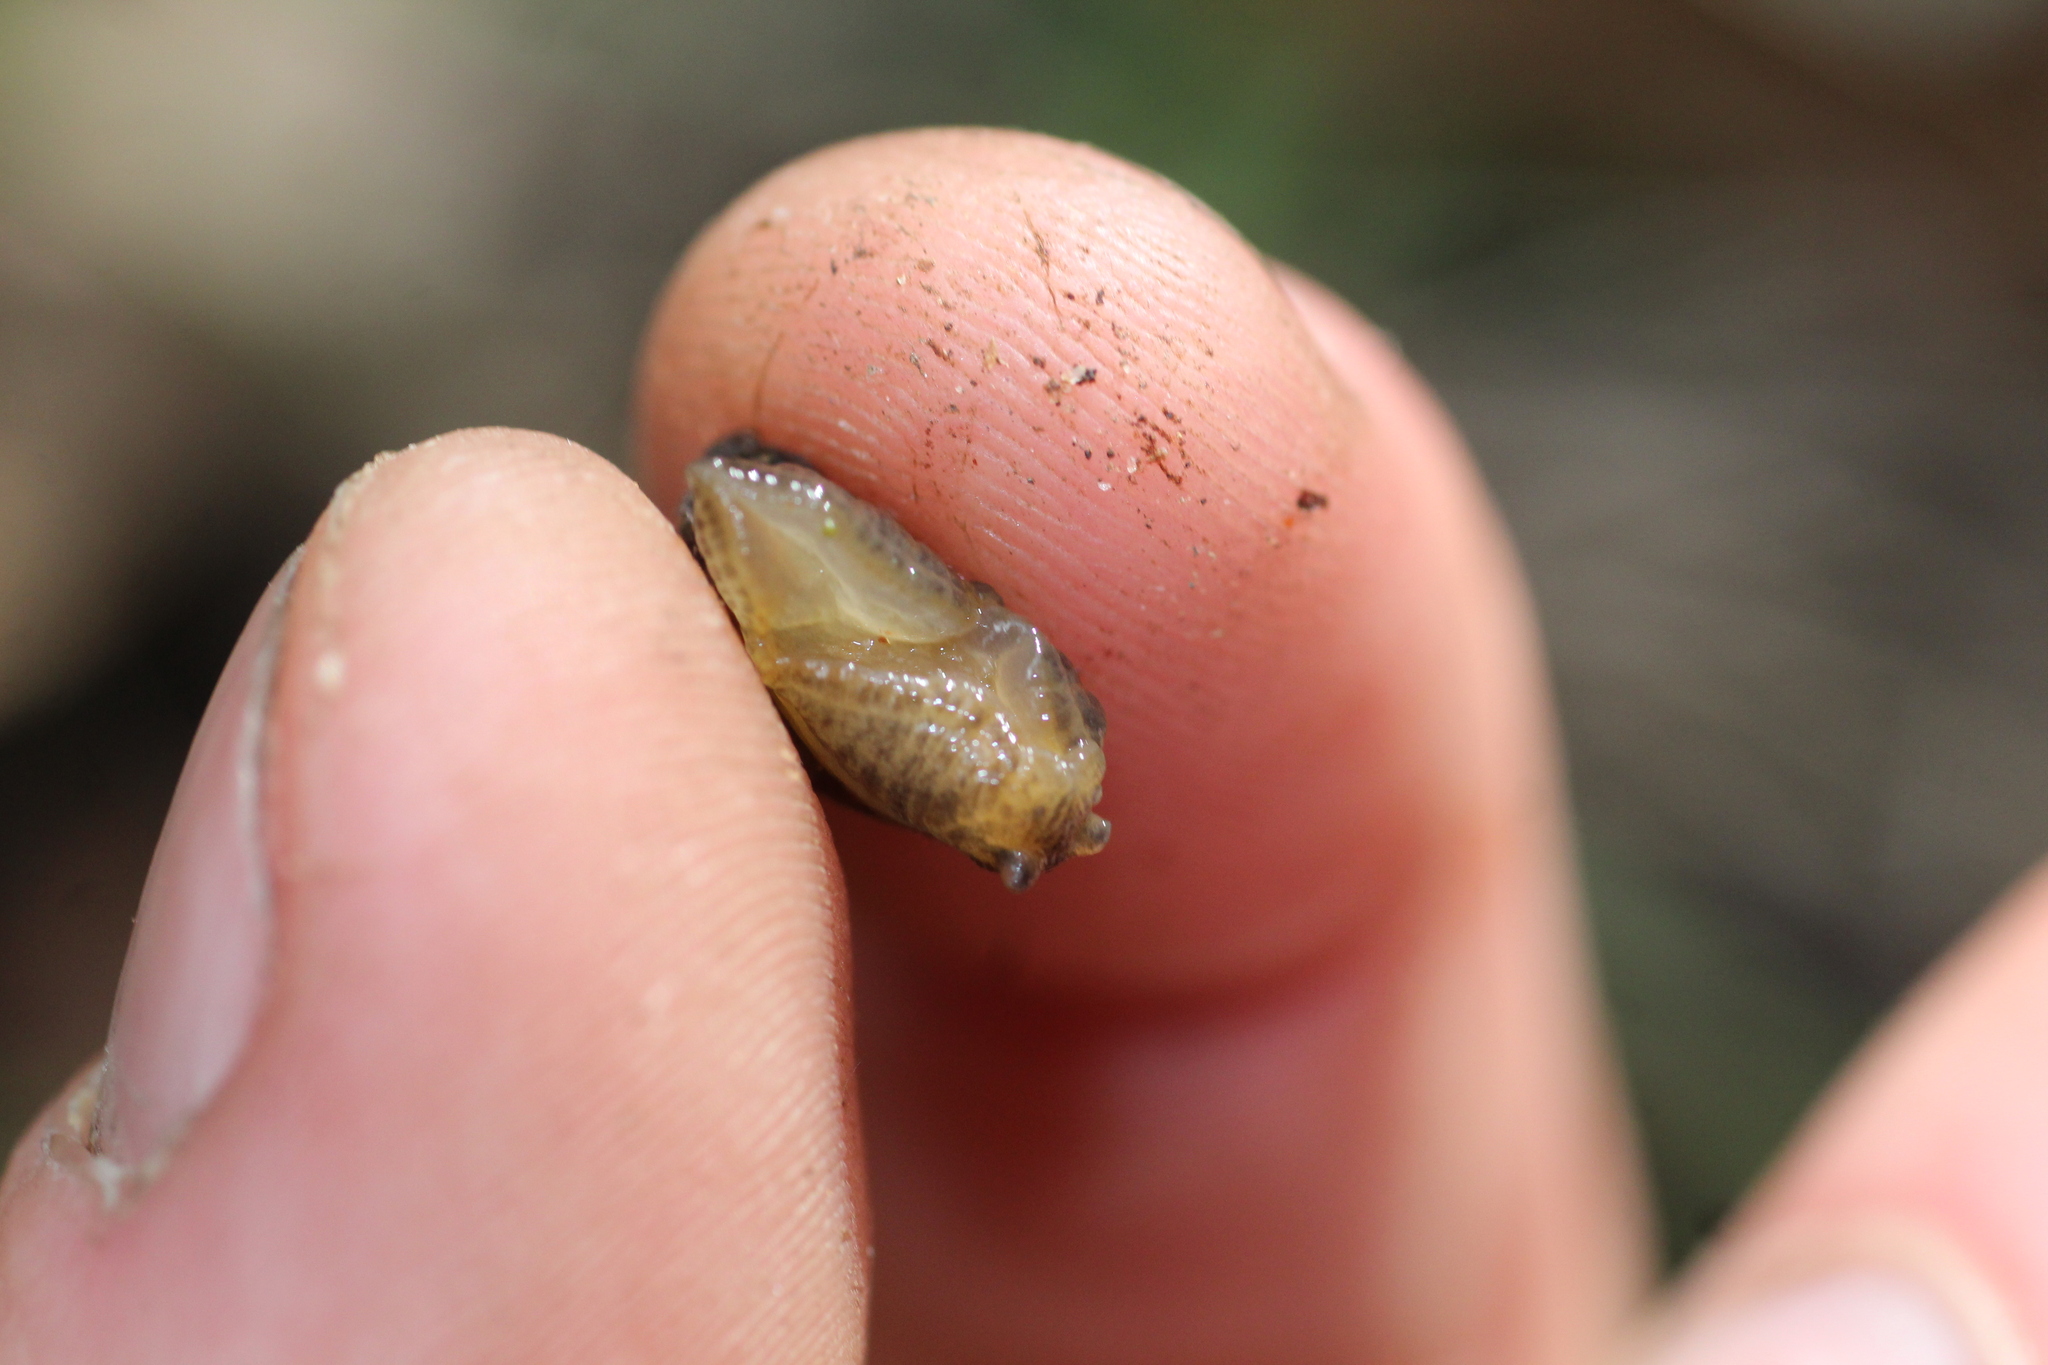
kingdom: Animalia
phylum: Mollusca
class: Gastropoda
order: Stylommatophora
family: Succineidae
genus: Succinea
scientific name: Succinea australis
